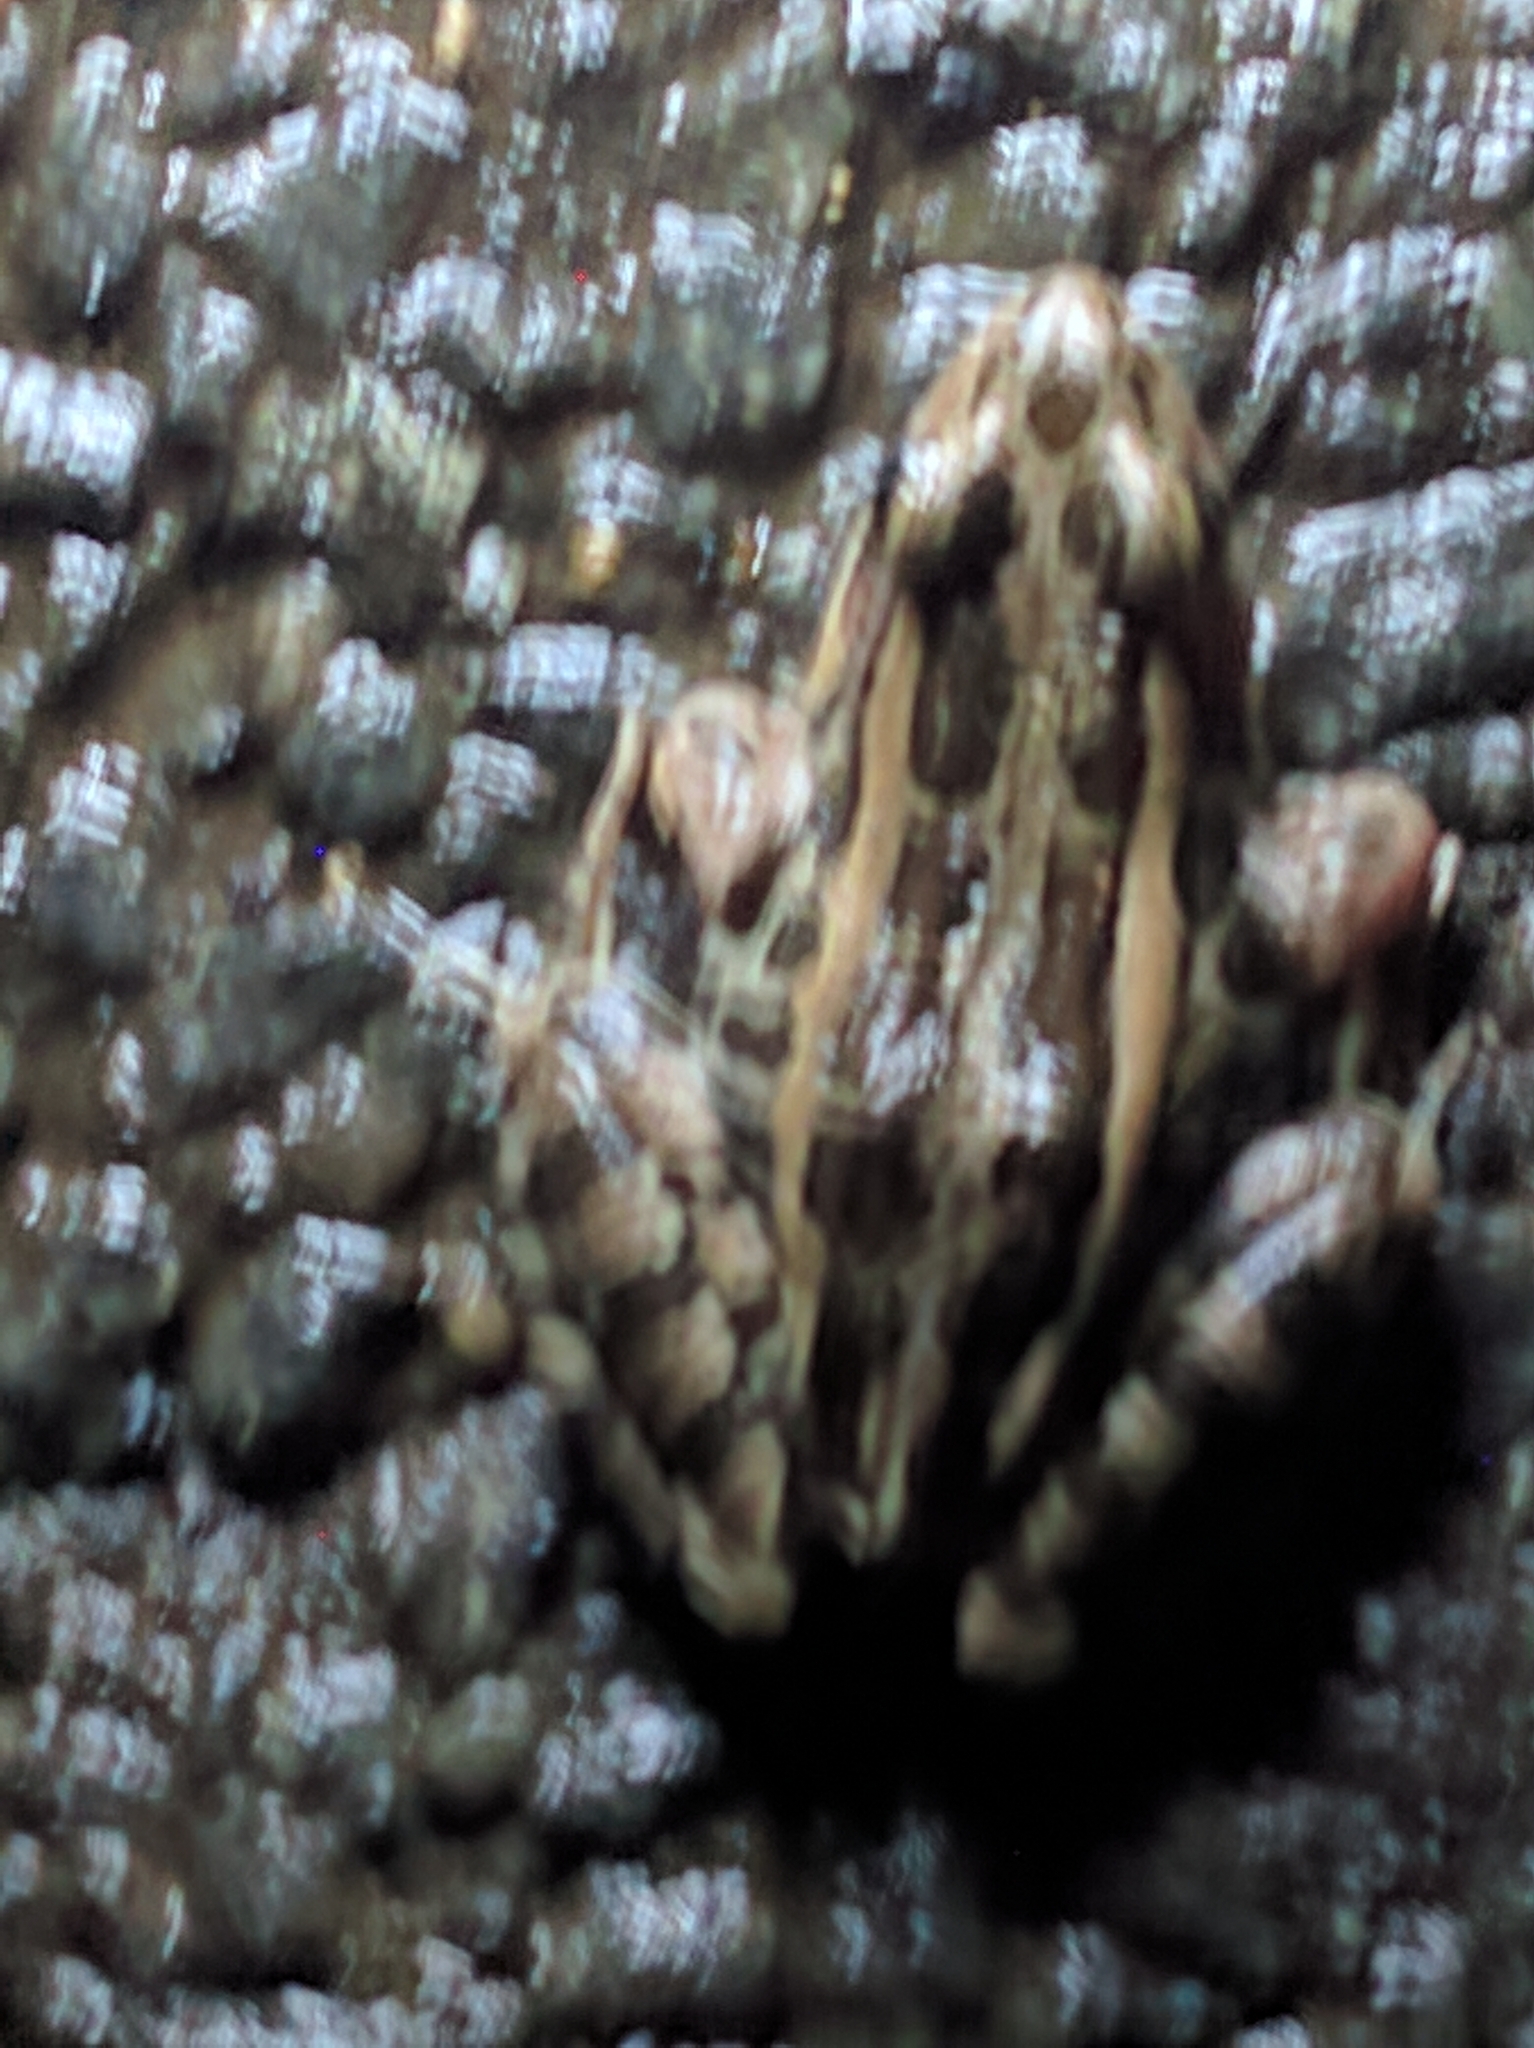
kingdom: Animalia
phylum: Chordata
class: Amphibia
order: Anura
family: Ranidae
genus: Lithobates
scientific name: Lithobates palustris
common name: Pickerel frog
